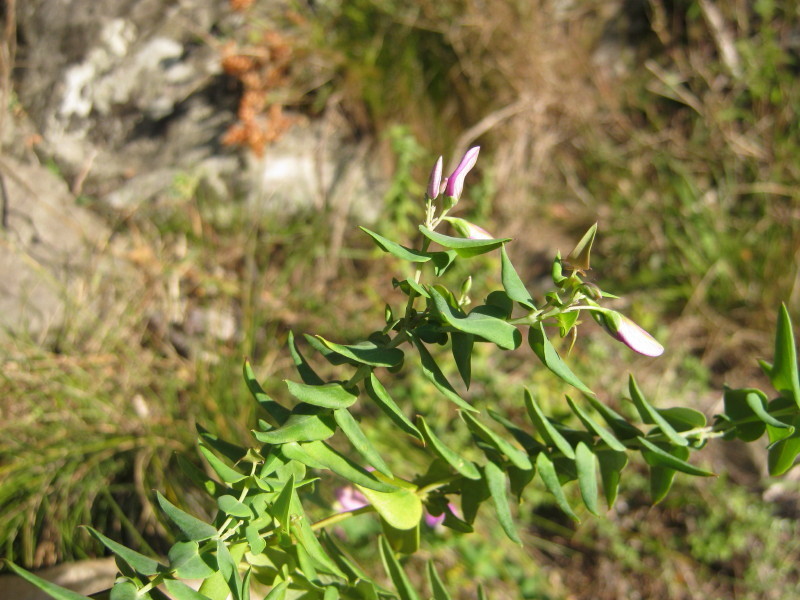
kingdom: Plantae
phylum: Tracheophyta
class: Magnoliopsida
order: Fabales
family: Polygalaceae
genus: Polygala
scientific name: Polygala fruticosa
